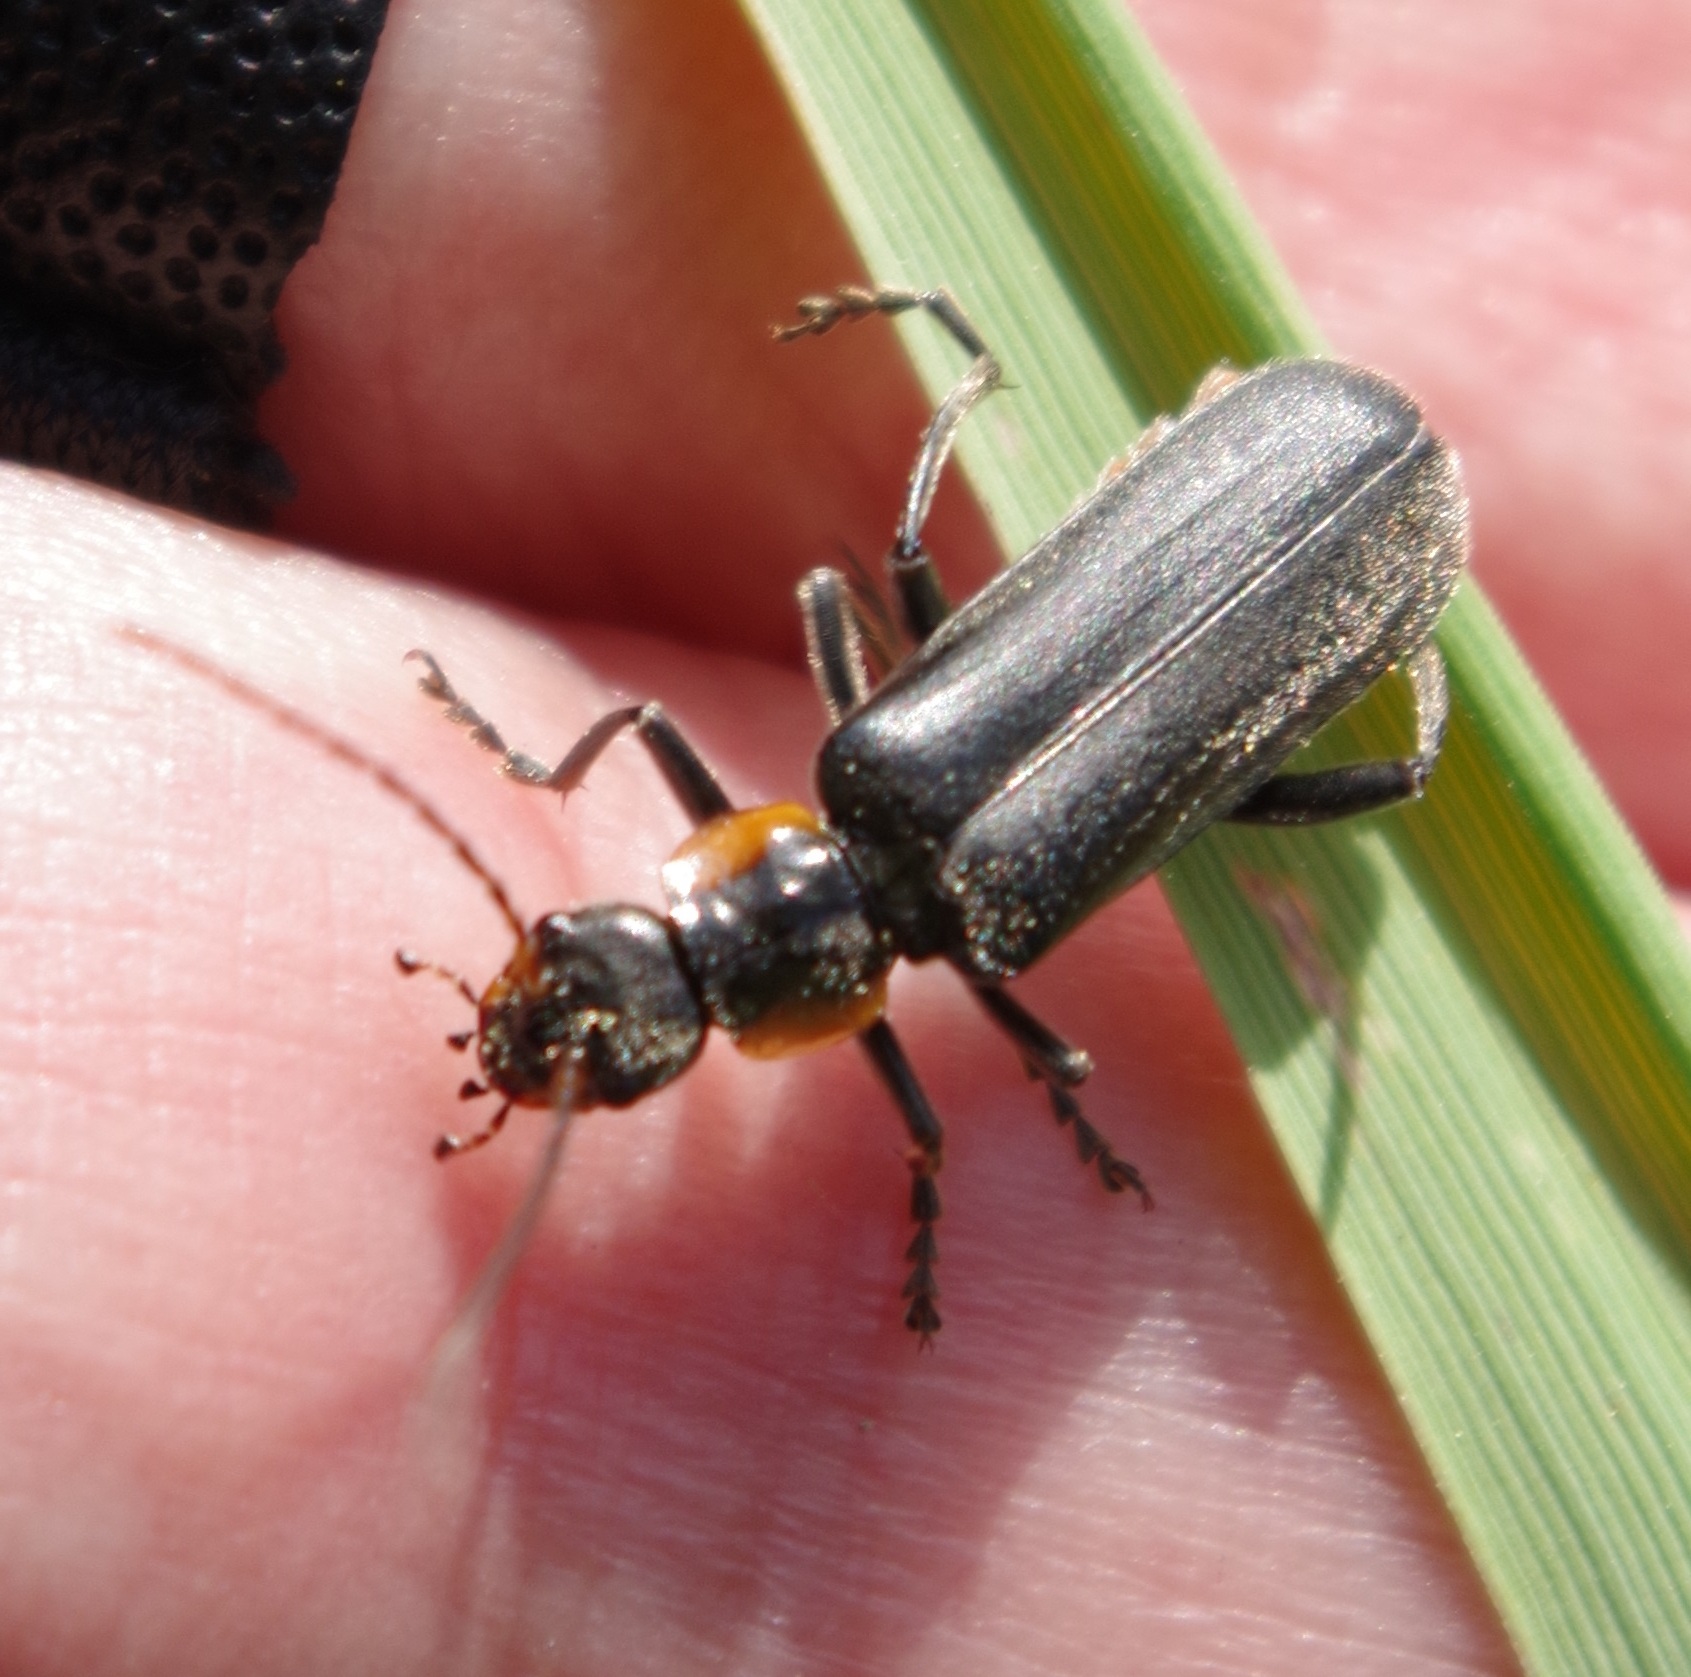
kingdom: Animalia
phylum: Arthropoda
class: Insecta
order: Coleoptera
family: Cantharidae
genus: Cantharis
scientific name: Cantharis obscura
